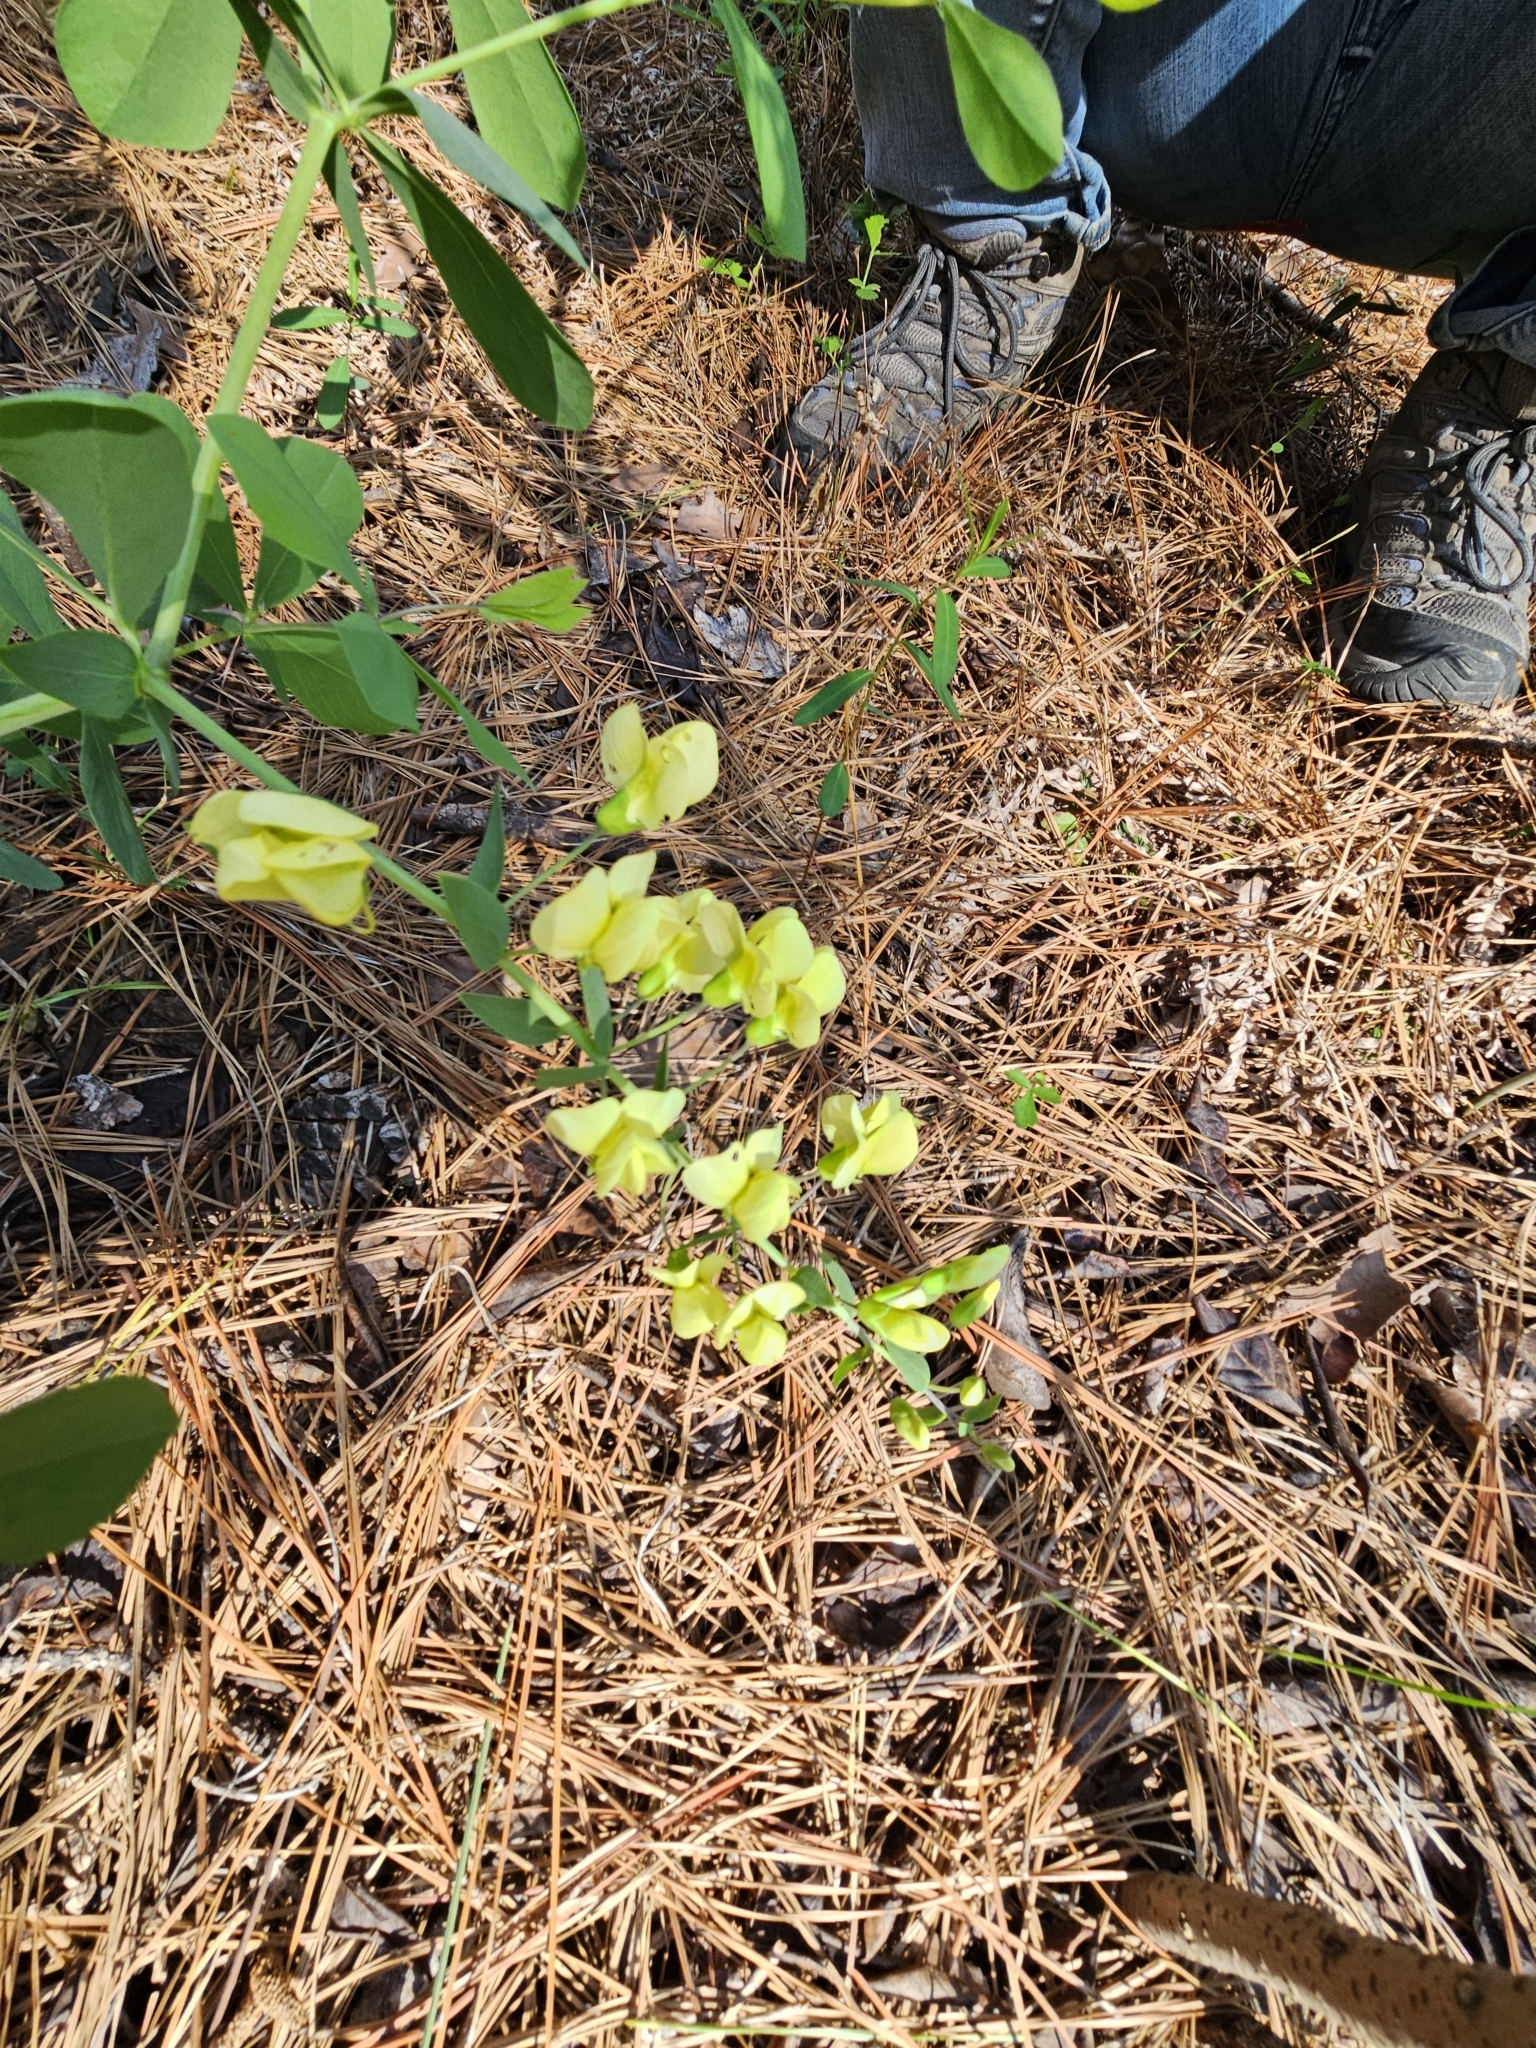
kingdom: Plantae
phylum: Tracheophyta
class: Magnoliopsida
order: Fabales
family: Fabaceae
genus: Baptisia
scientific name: Baptisia bracteata
